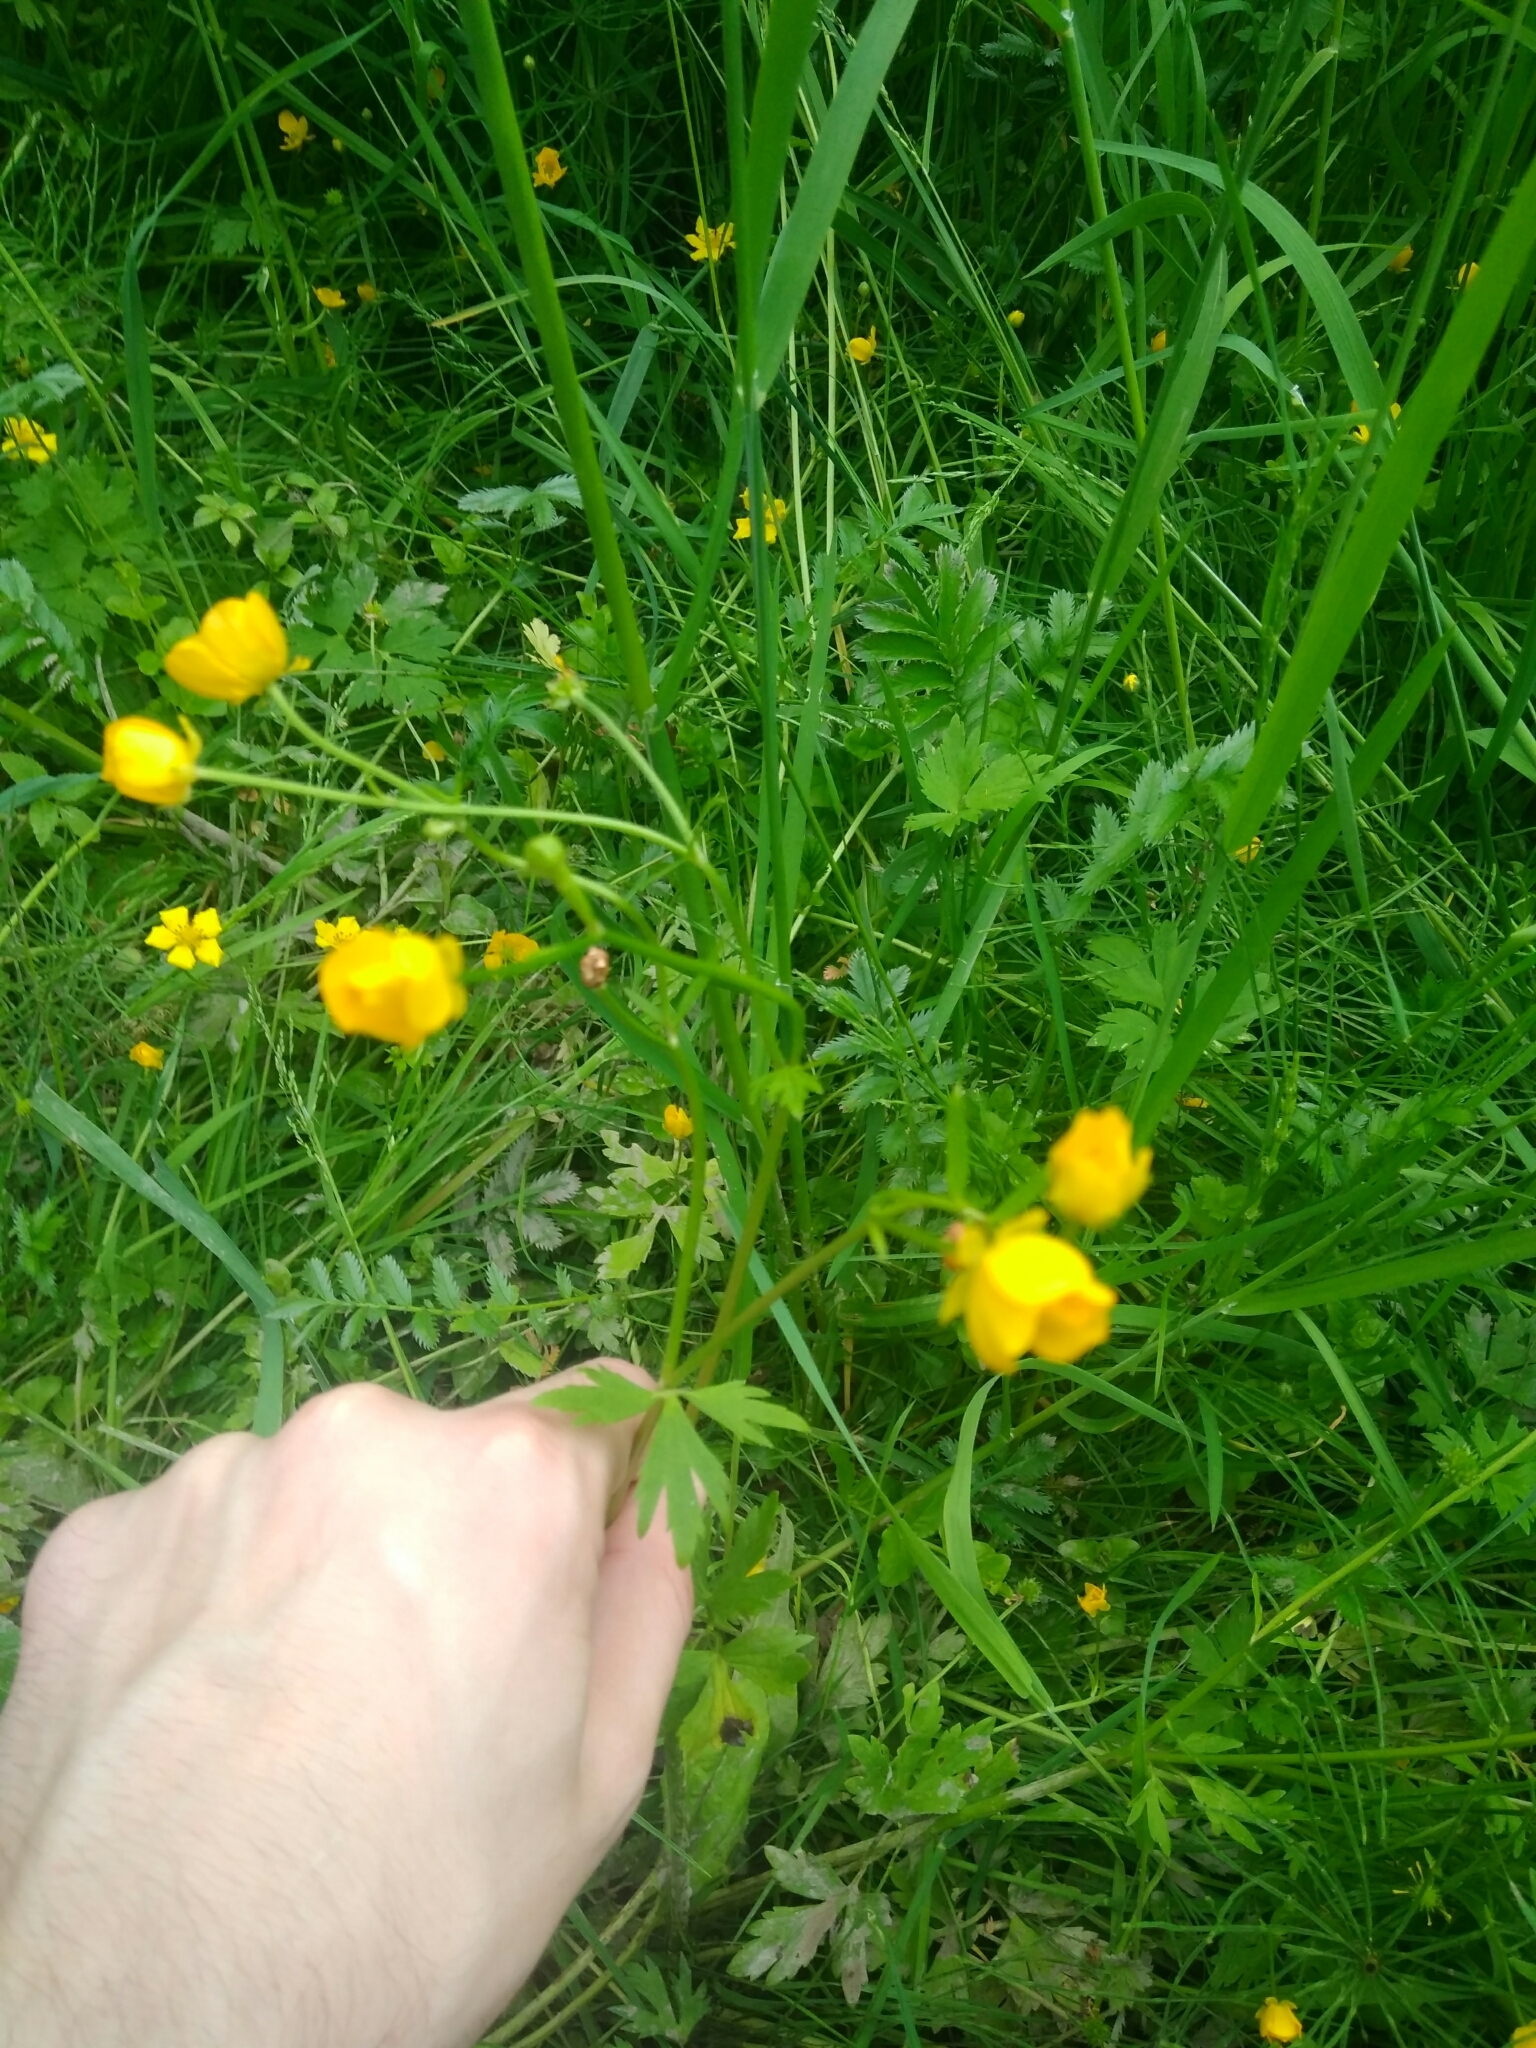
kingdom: Plantae
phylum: Tracheophyta
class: Magnoliopsida
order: Ranunculales
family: Ranunculaceae
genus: Ranunculus
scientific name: Ranunculus repens
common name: Creeping buttercup
